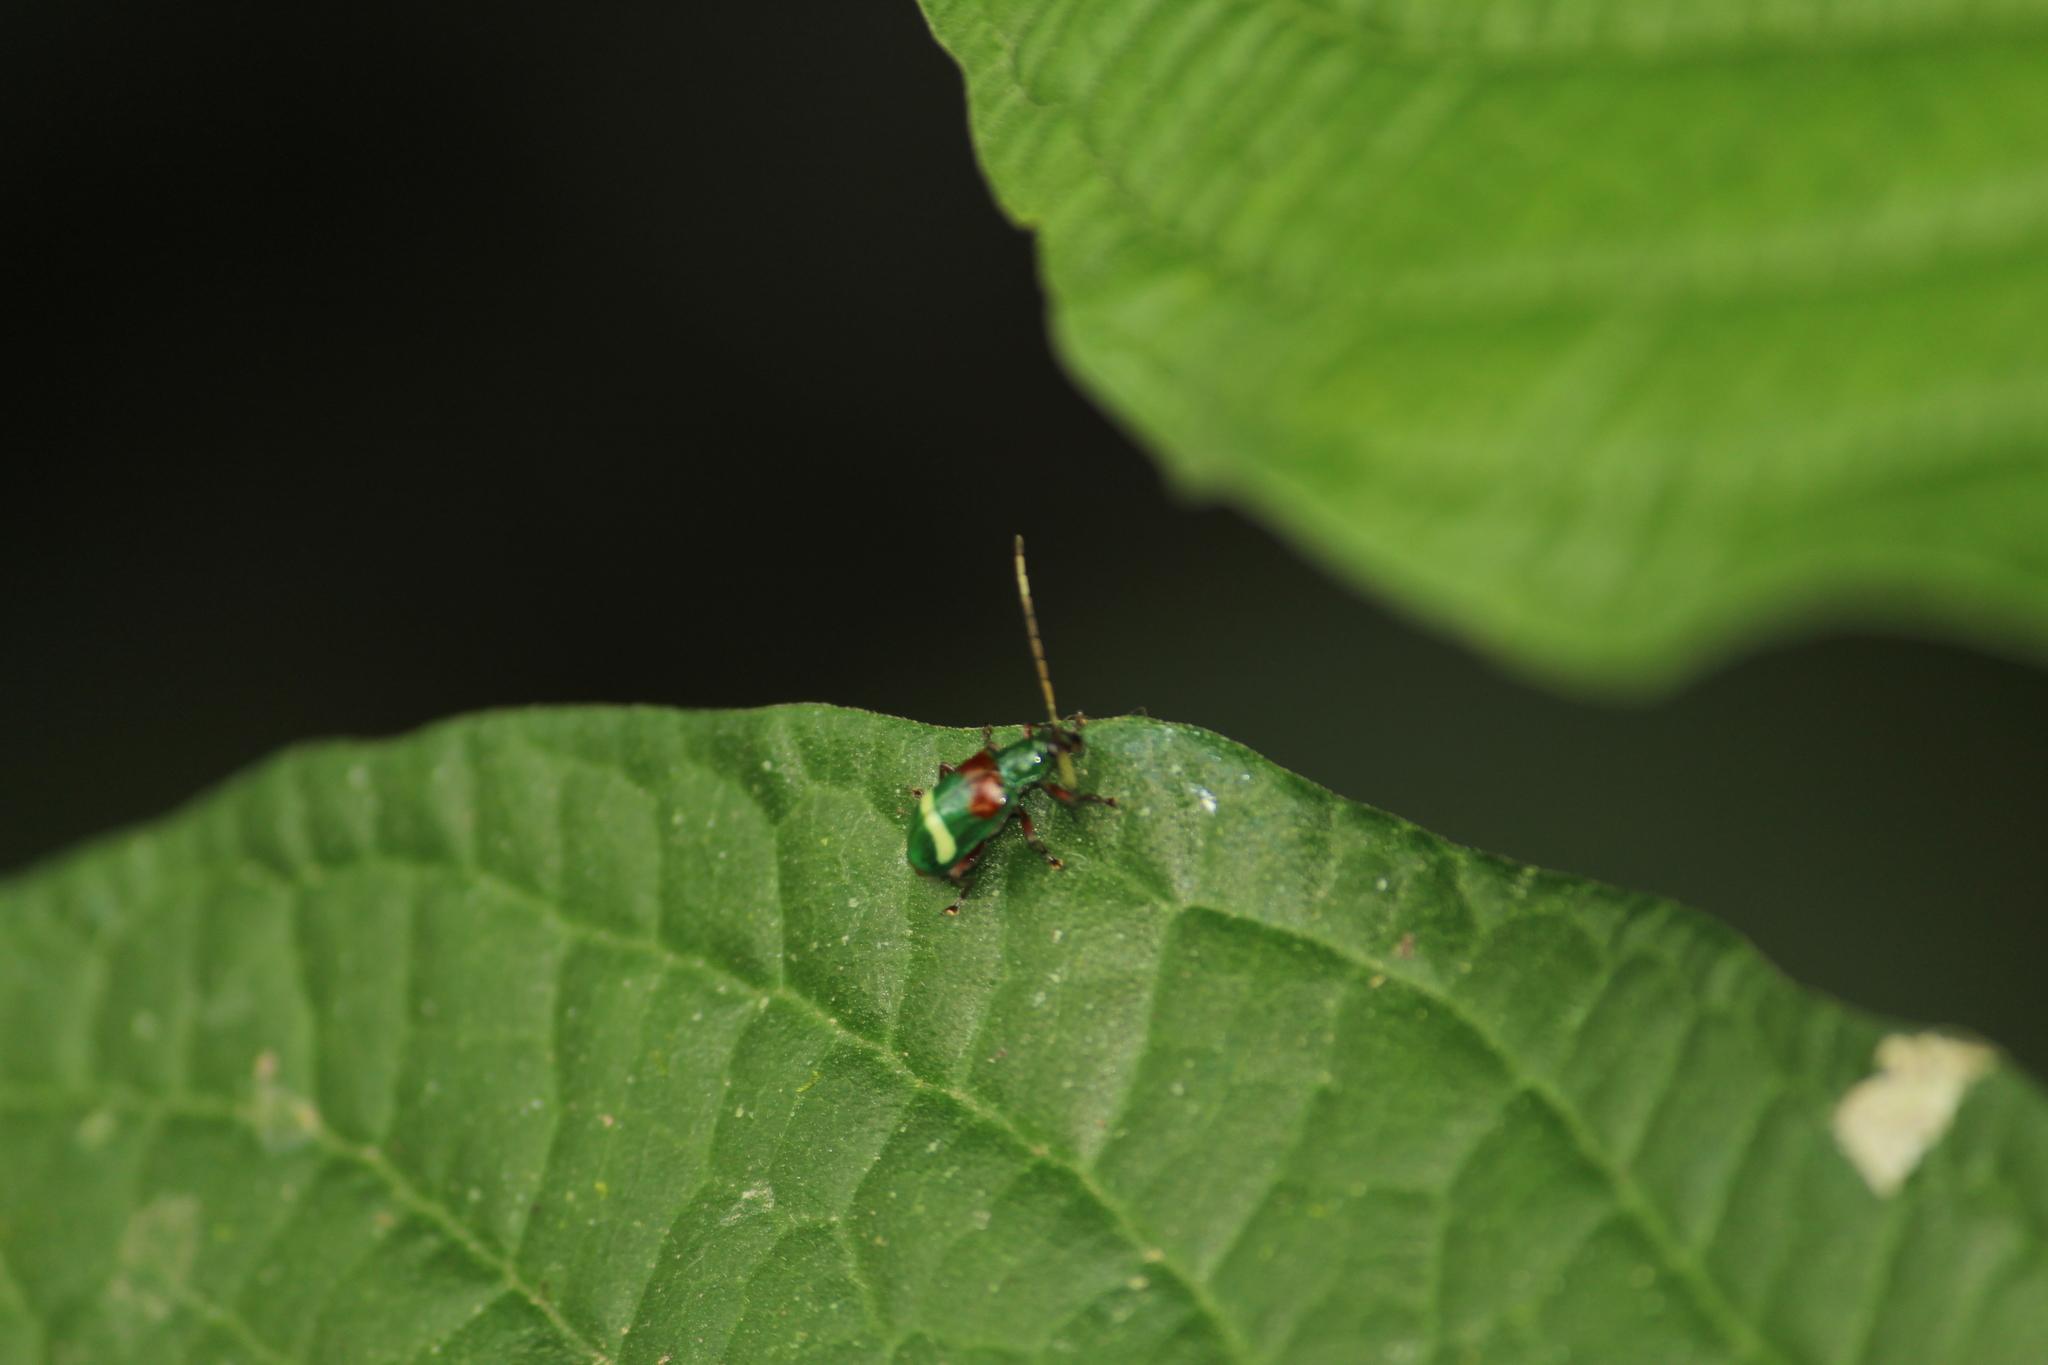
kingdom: Animalia
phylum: Arthropoda
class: Insecta
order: Coleoptera
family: Chrysomelidae
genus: Charidotella
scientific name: Charidotella amoenula
